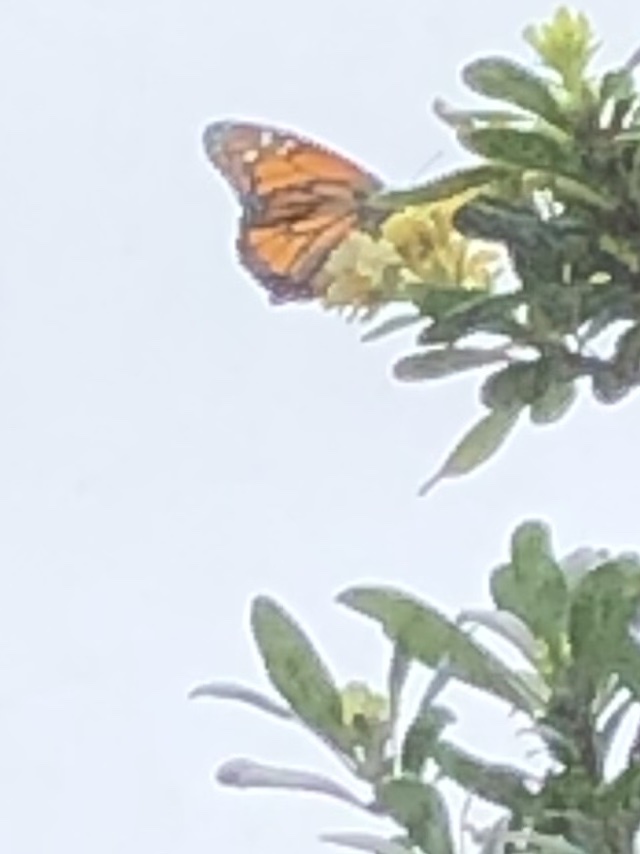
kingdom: Animalia
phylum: Arthropoda
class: Insecta
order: Lepidoptera
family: Nymphalidae
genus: Danaus
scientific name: Danaus plexippus
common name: Monarch
